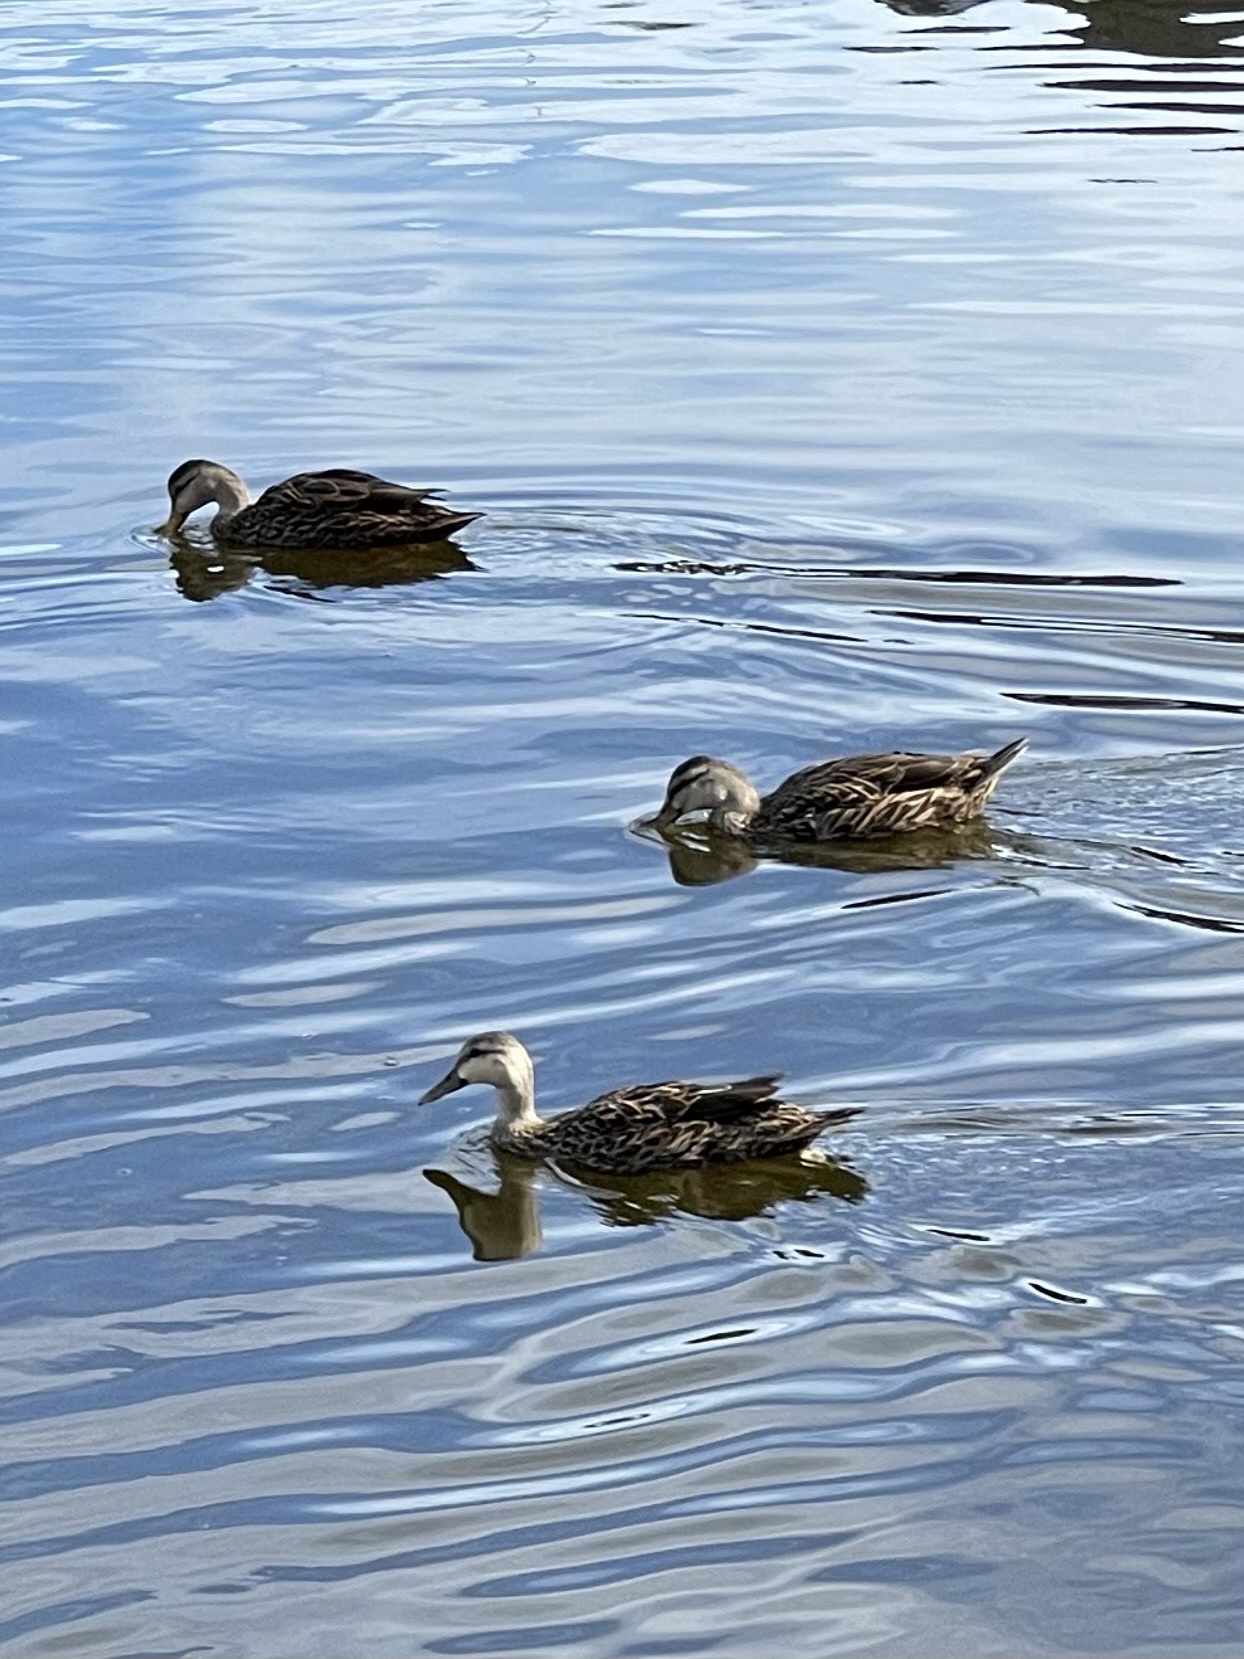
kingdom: Animalia
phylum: Chordata
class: Aves
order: Anseriformes
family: Anatidae
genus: Anas
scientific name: Anas
